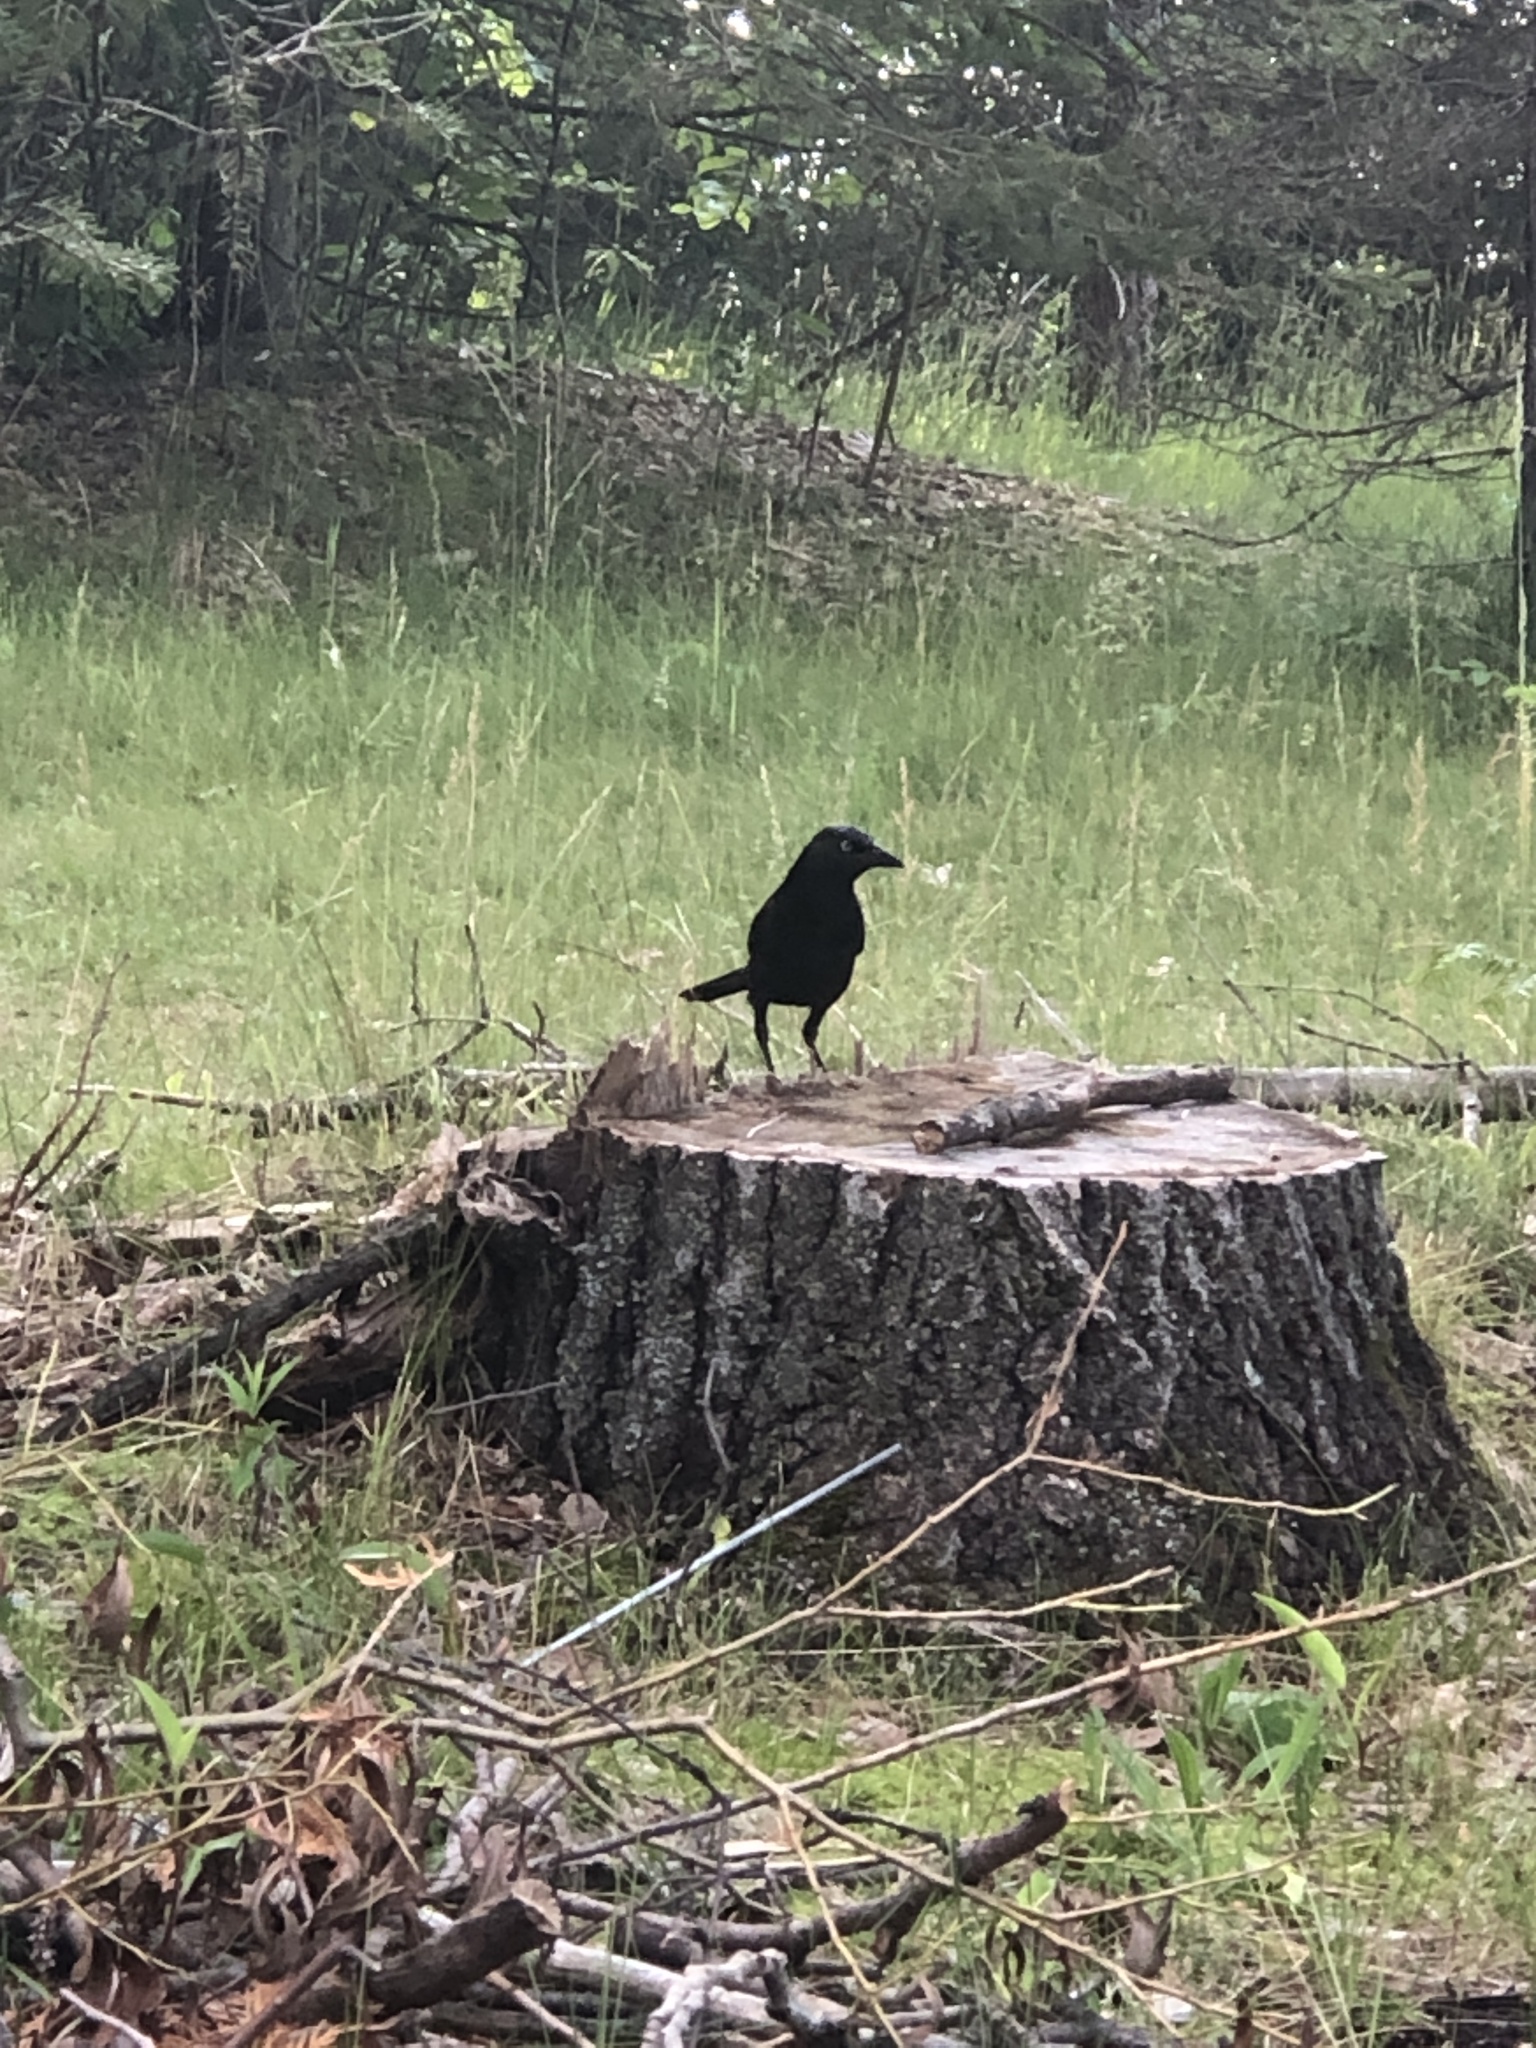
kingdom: Animalia
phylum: Chordata
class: Aves
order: Passeriformes
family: Icteridae
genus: Quiscalus
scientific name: Quiscalus quiscula
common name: Common grackle
